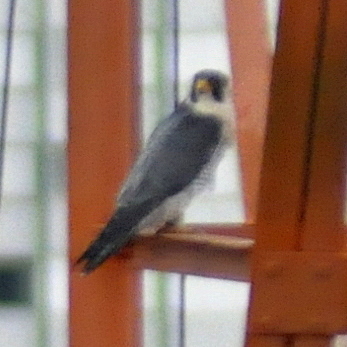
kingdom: Animalia
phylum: Chordata
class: Aves
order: Falconiformes
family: Falconidae
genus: Falco
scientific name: Falco peregrinus
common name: Peregrine falcon
